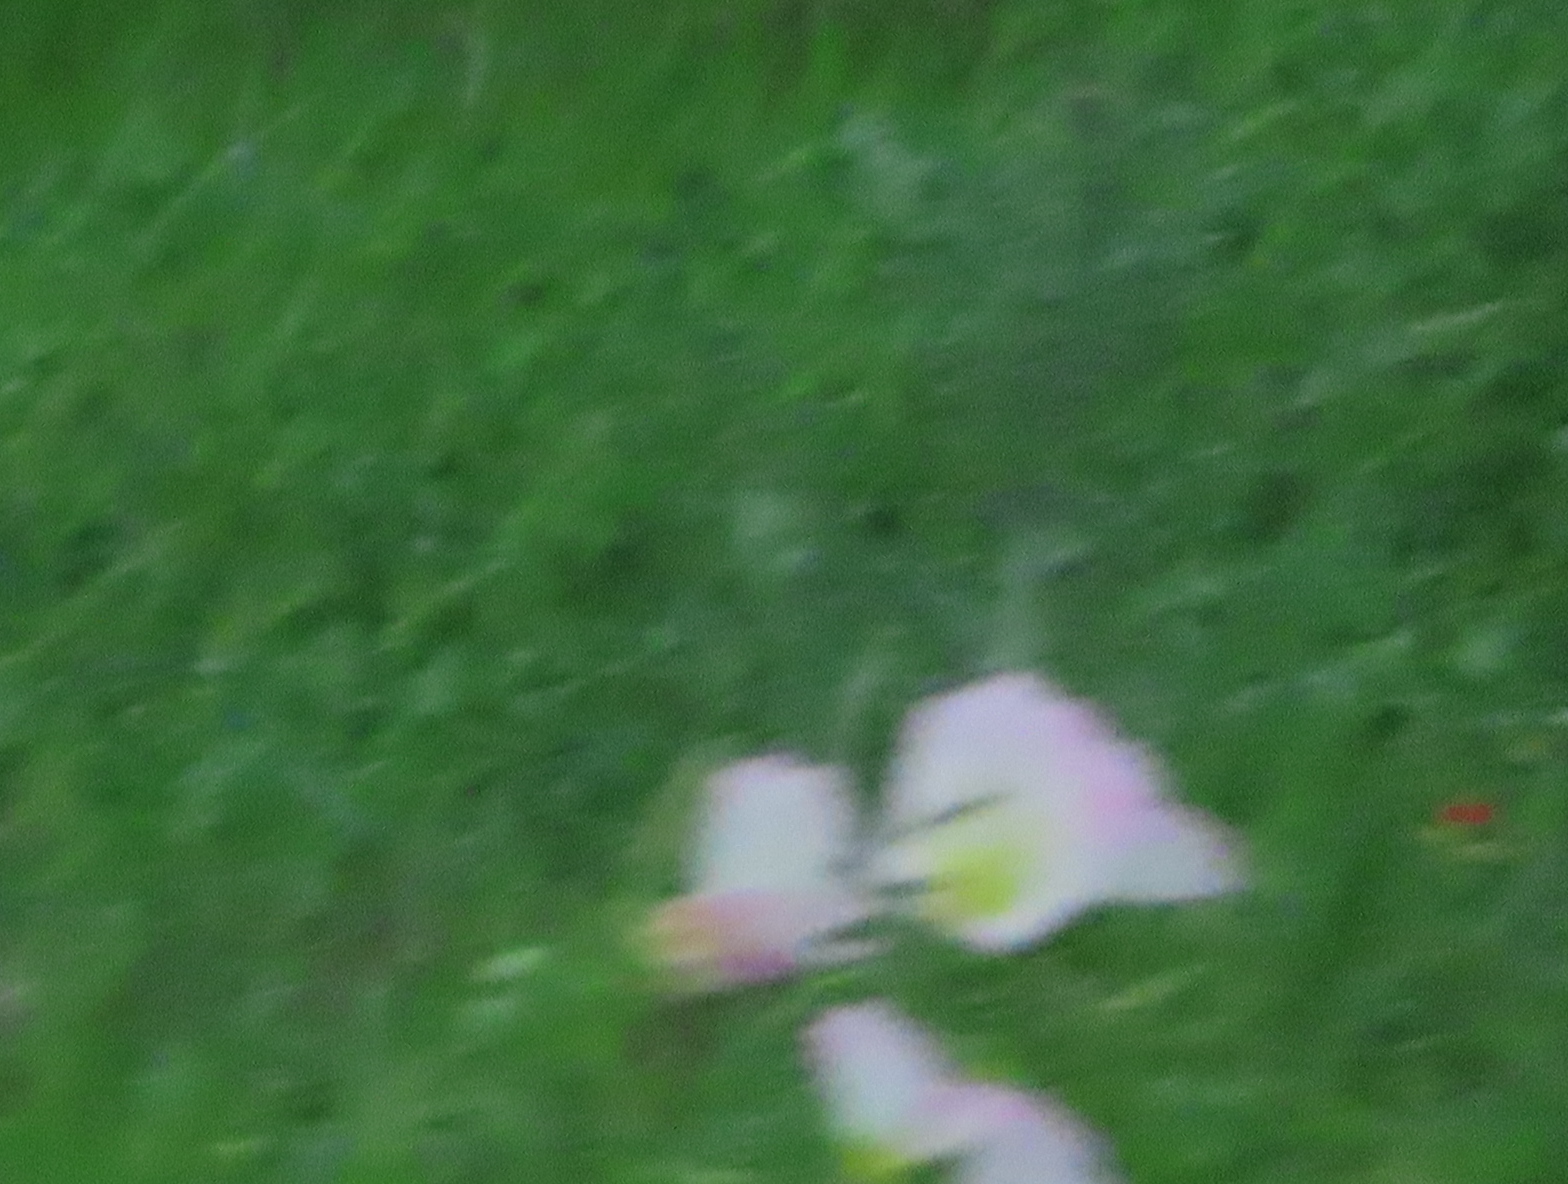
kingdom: Plantae
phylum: Tracheophyta
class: Magnoliopsida
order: Myrtales
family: Onagraceae
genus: Oenothera
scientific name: Oenothera speciosa
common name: White evening-primrose
